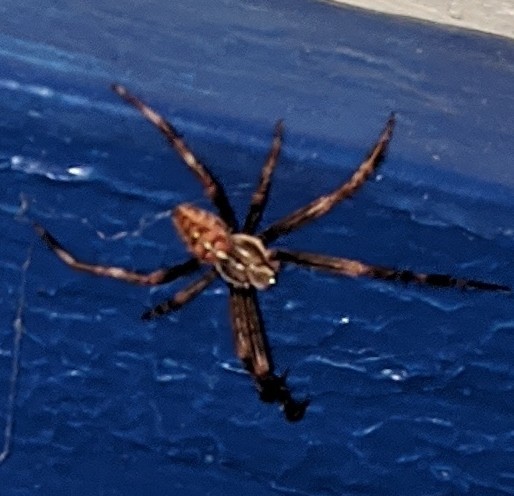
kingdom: Animalia
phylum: Arthropoda
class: Arachnida
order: Araneae
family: Araneidae
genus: Araneus
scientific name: Araneus diadematus
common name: Cross orbweaver
